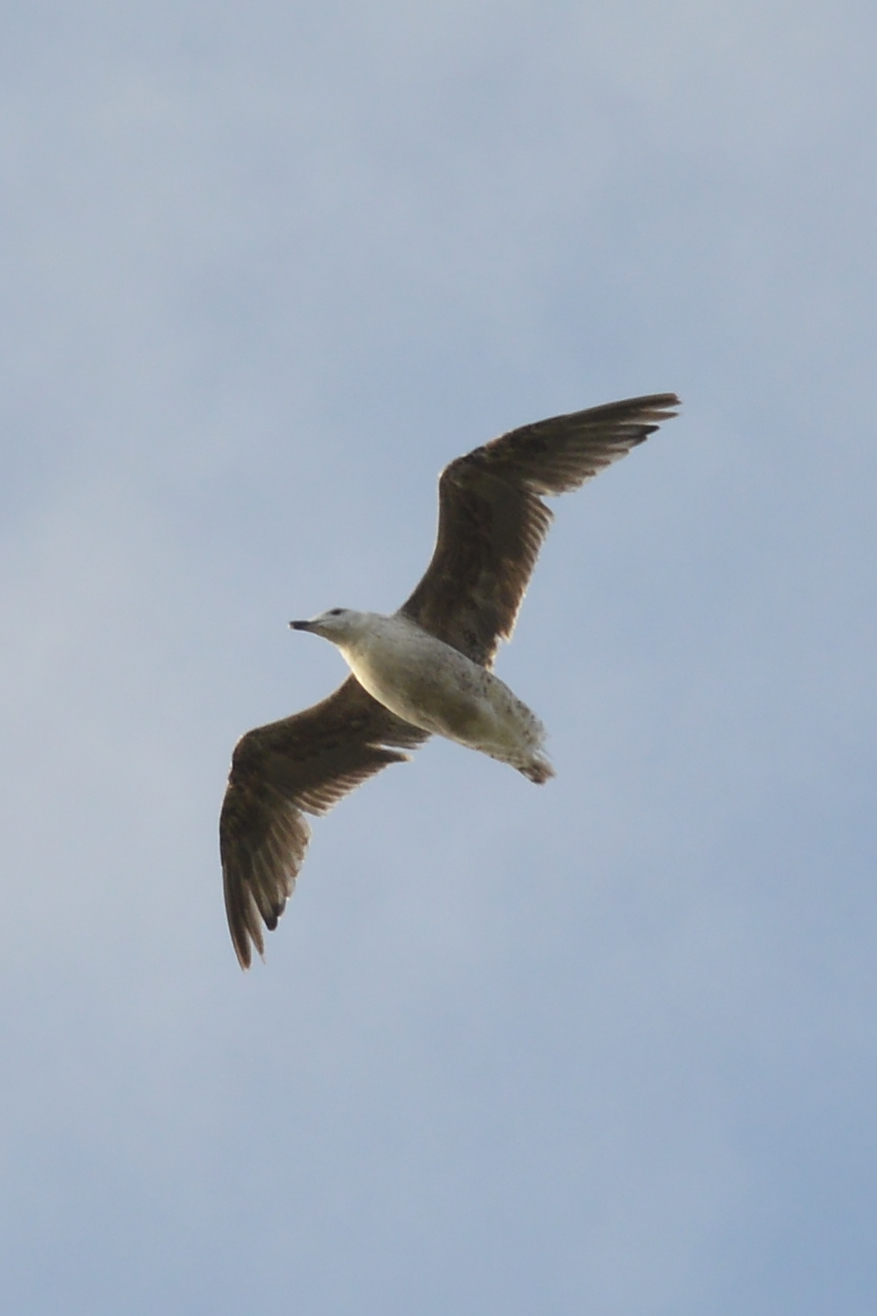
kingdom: Animalia
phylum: Chordata
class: Aves
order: Charadriiformes
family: Laridae
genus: Larus
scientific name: Larus marinus
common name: Great black-backed gull
